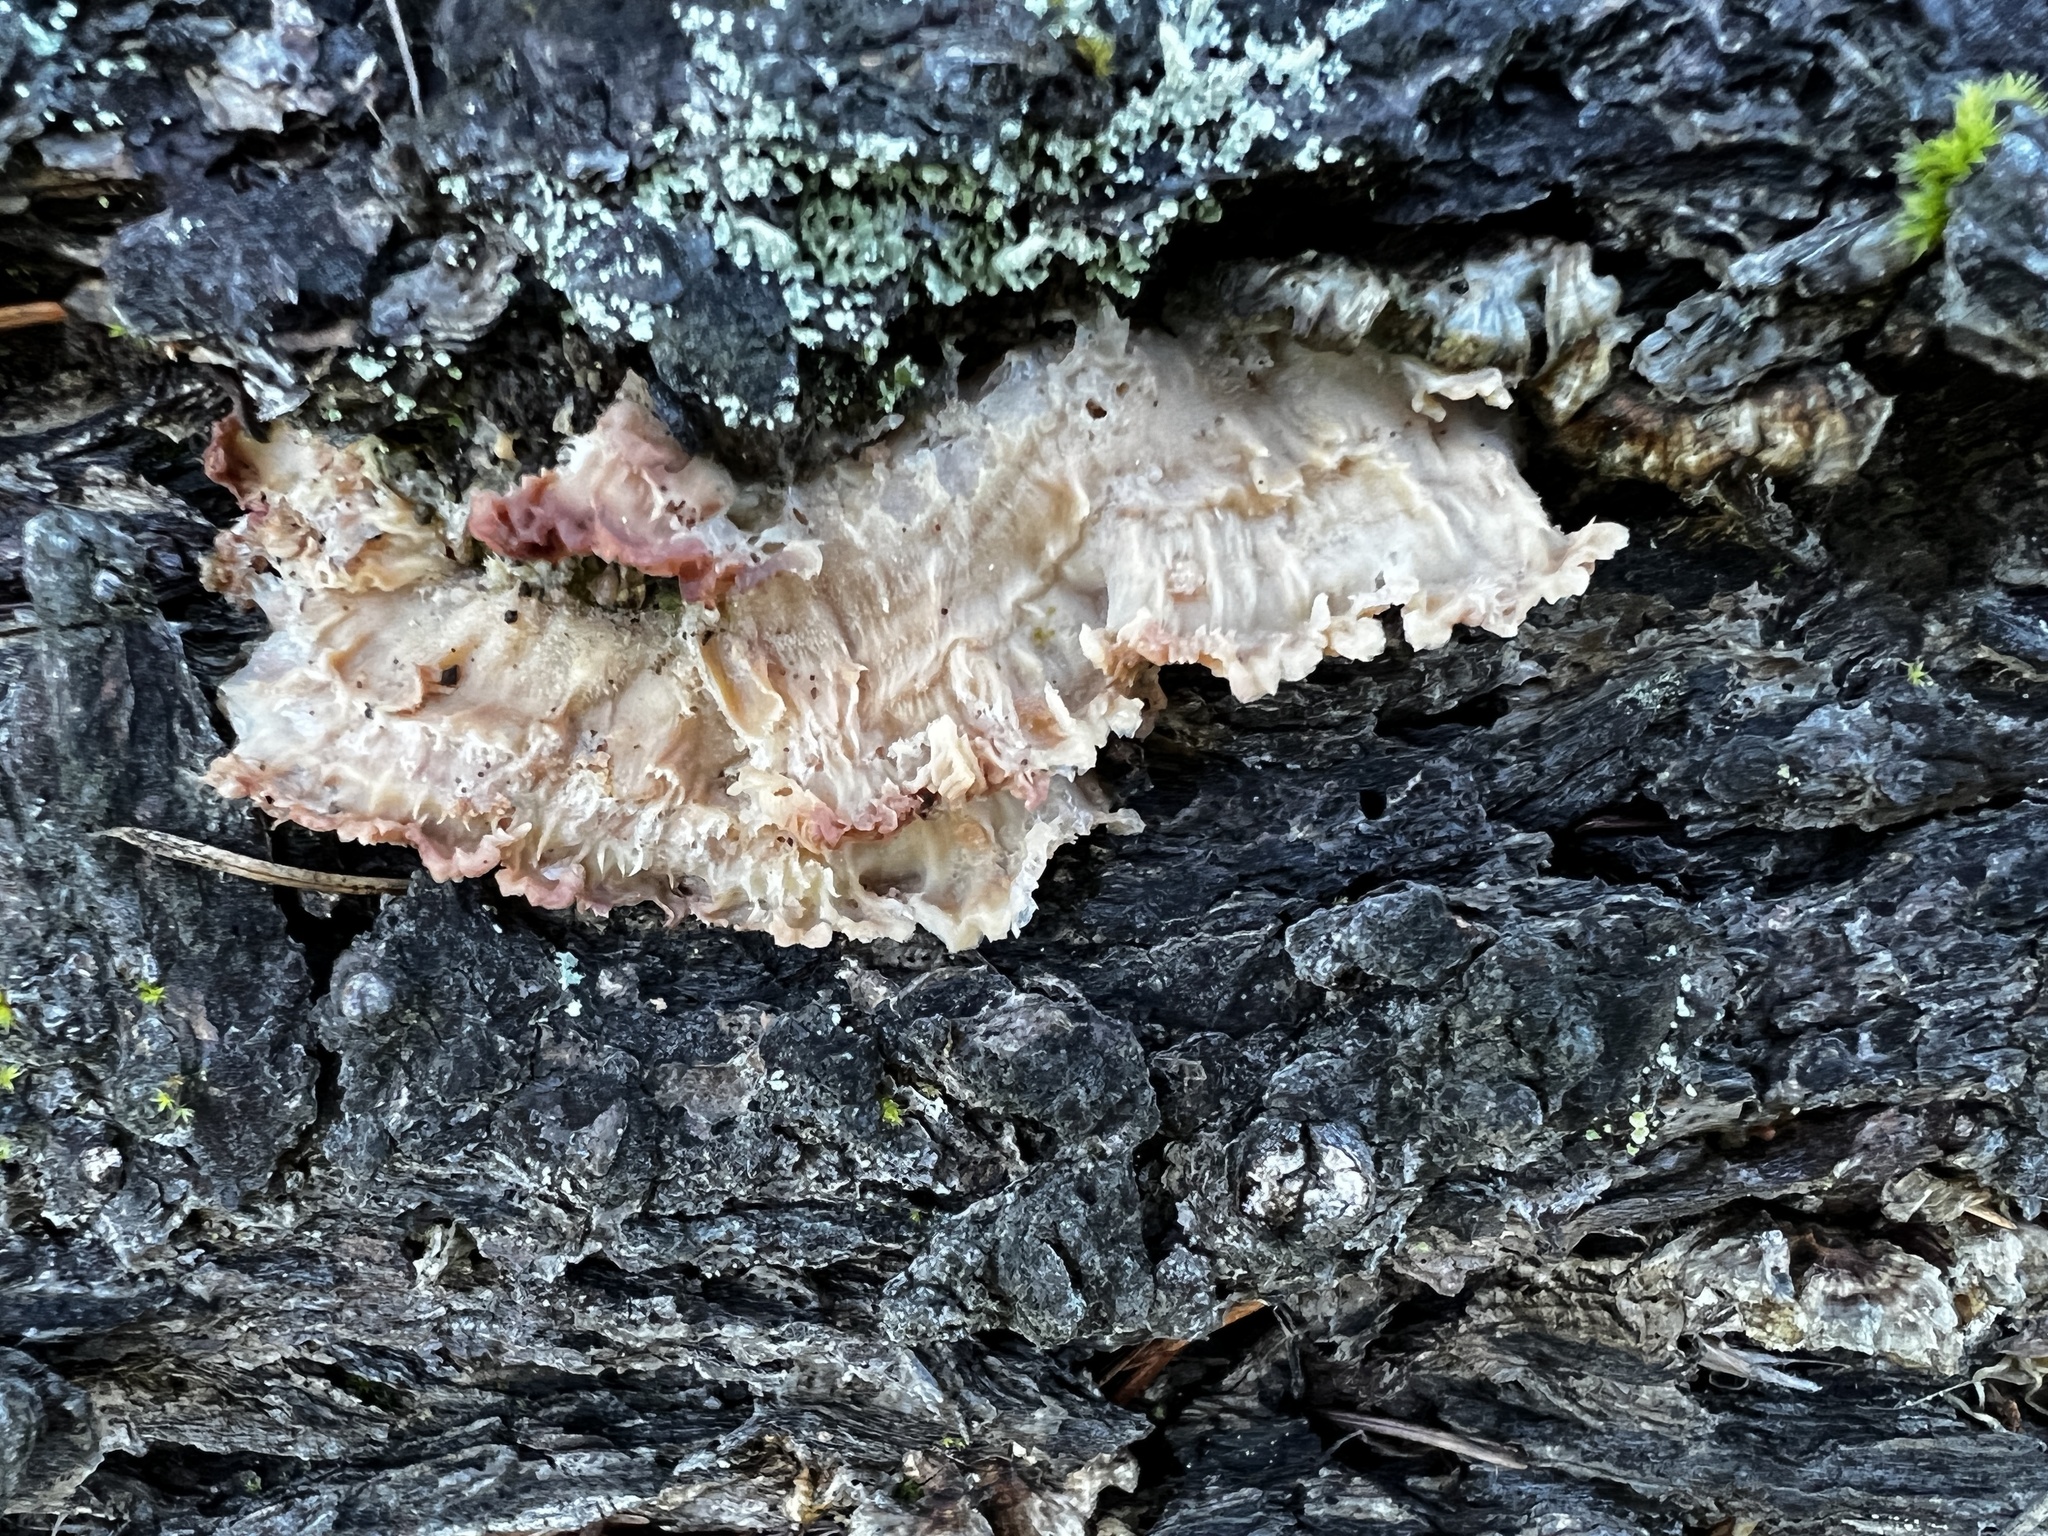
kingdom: Fungi
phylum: Basidiomycota
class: Agaricomycetes
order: Polyporales
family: Meruliaceae
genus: Phlebia
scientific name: Phlebia tremellosa
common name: Jelly rot
